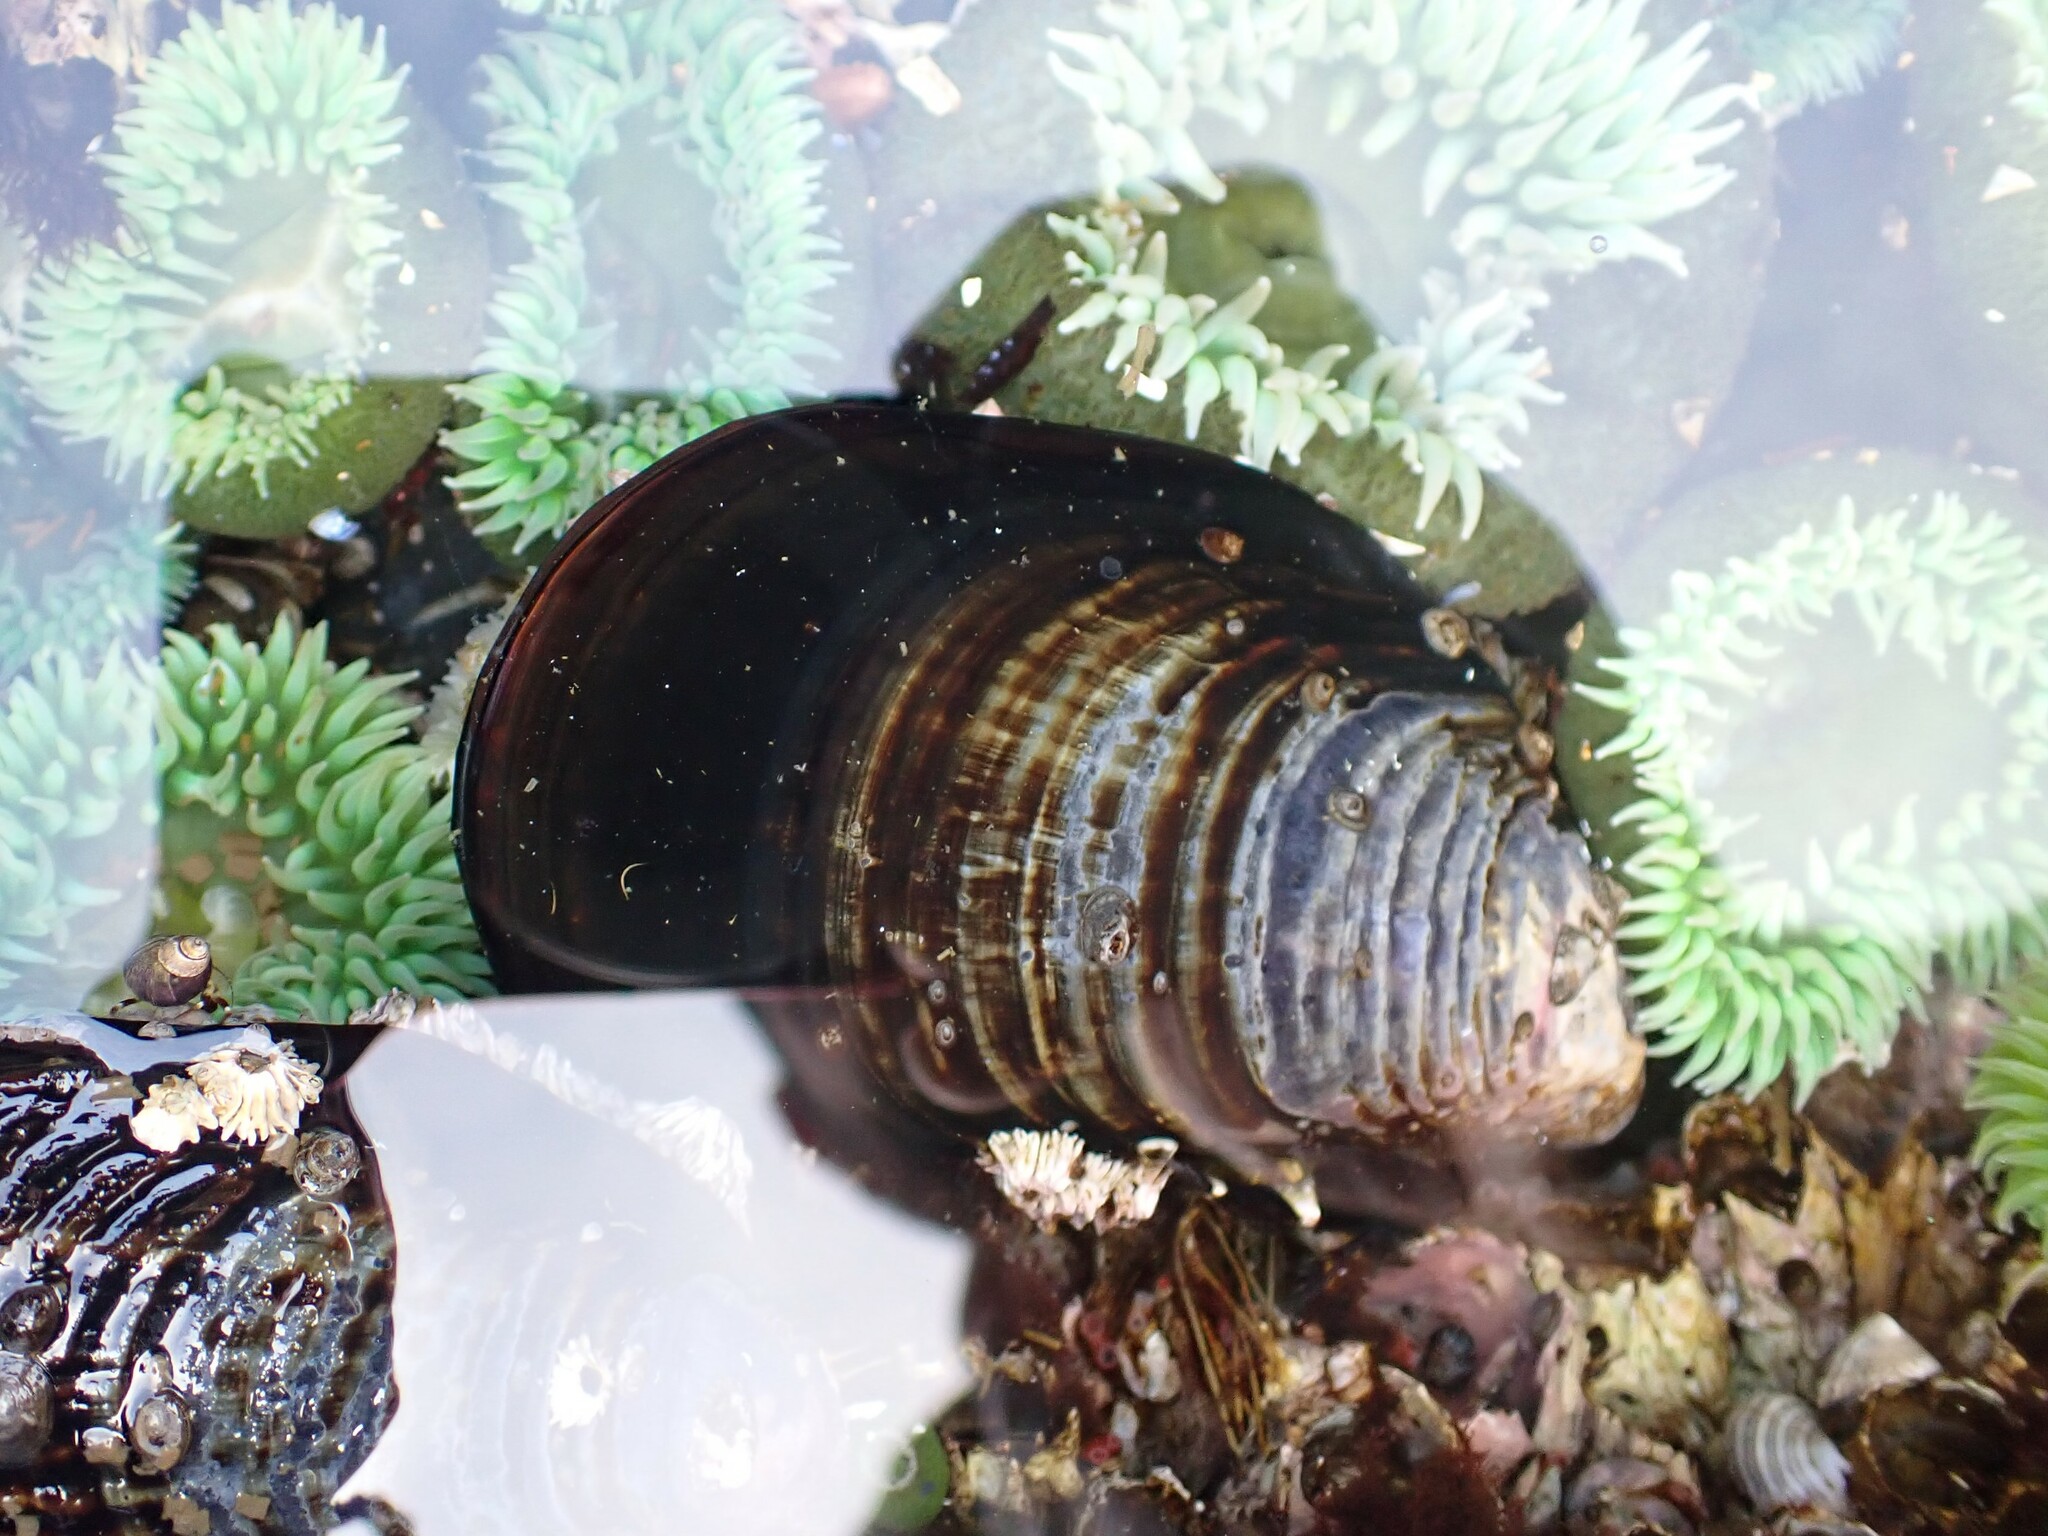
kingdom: Animalia
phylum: Mollusca
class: Bivalvia
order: Mytilida
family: Mytilidae
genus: Mytilus
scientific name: Mytilus californianus
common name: California mussel
